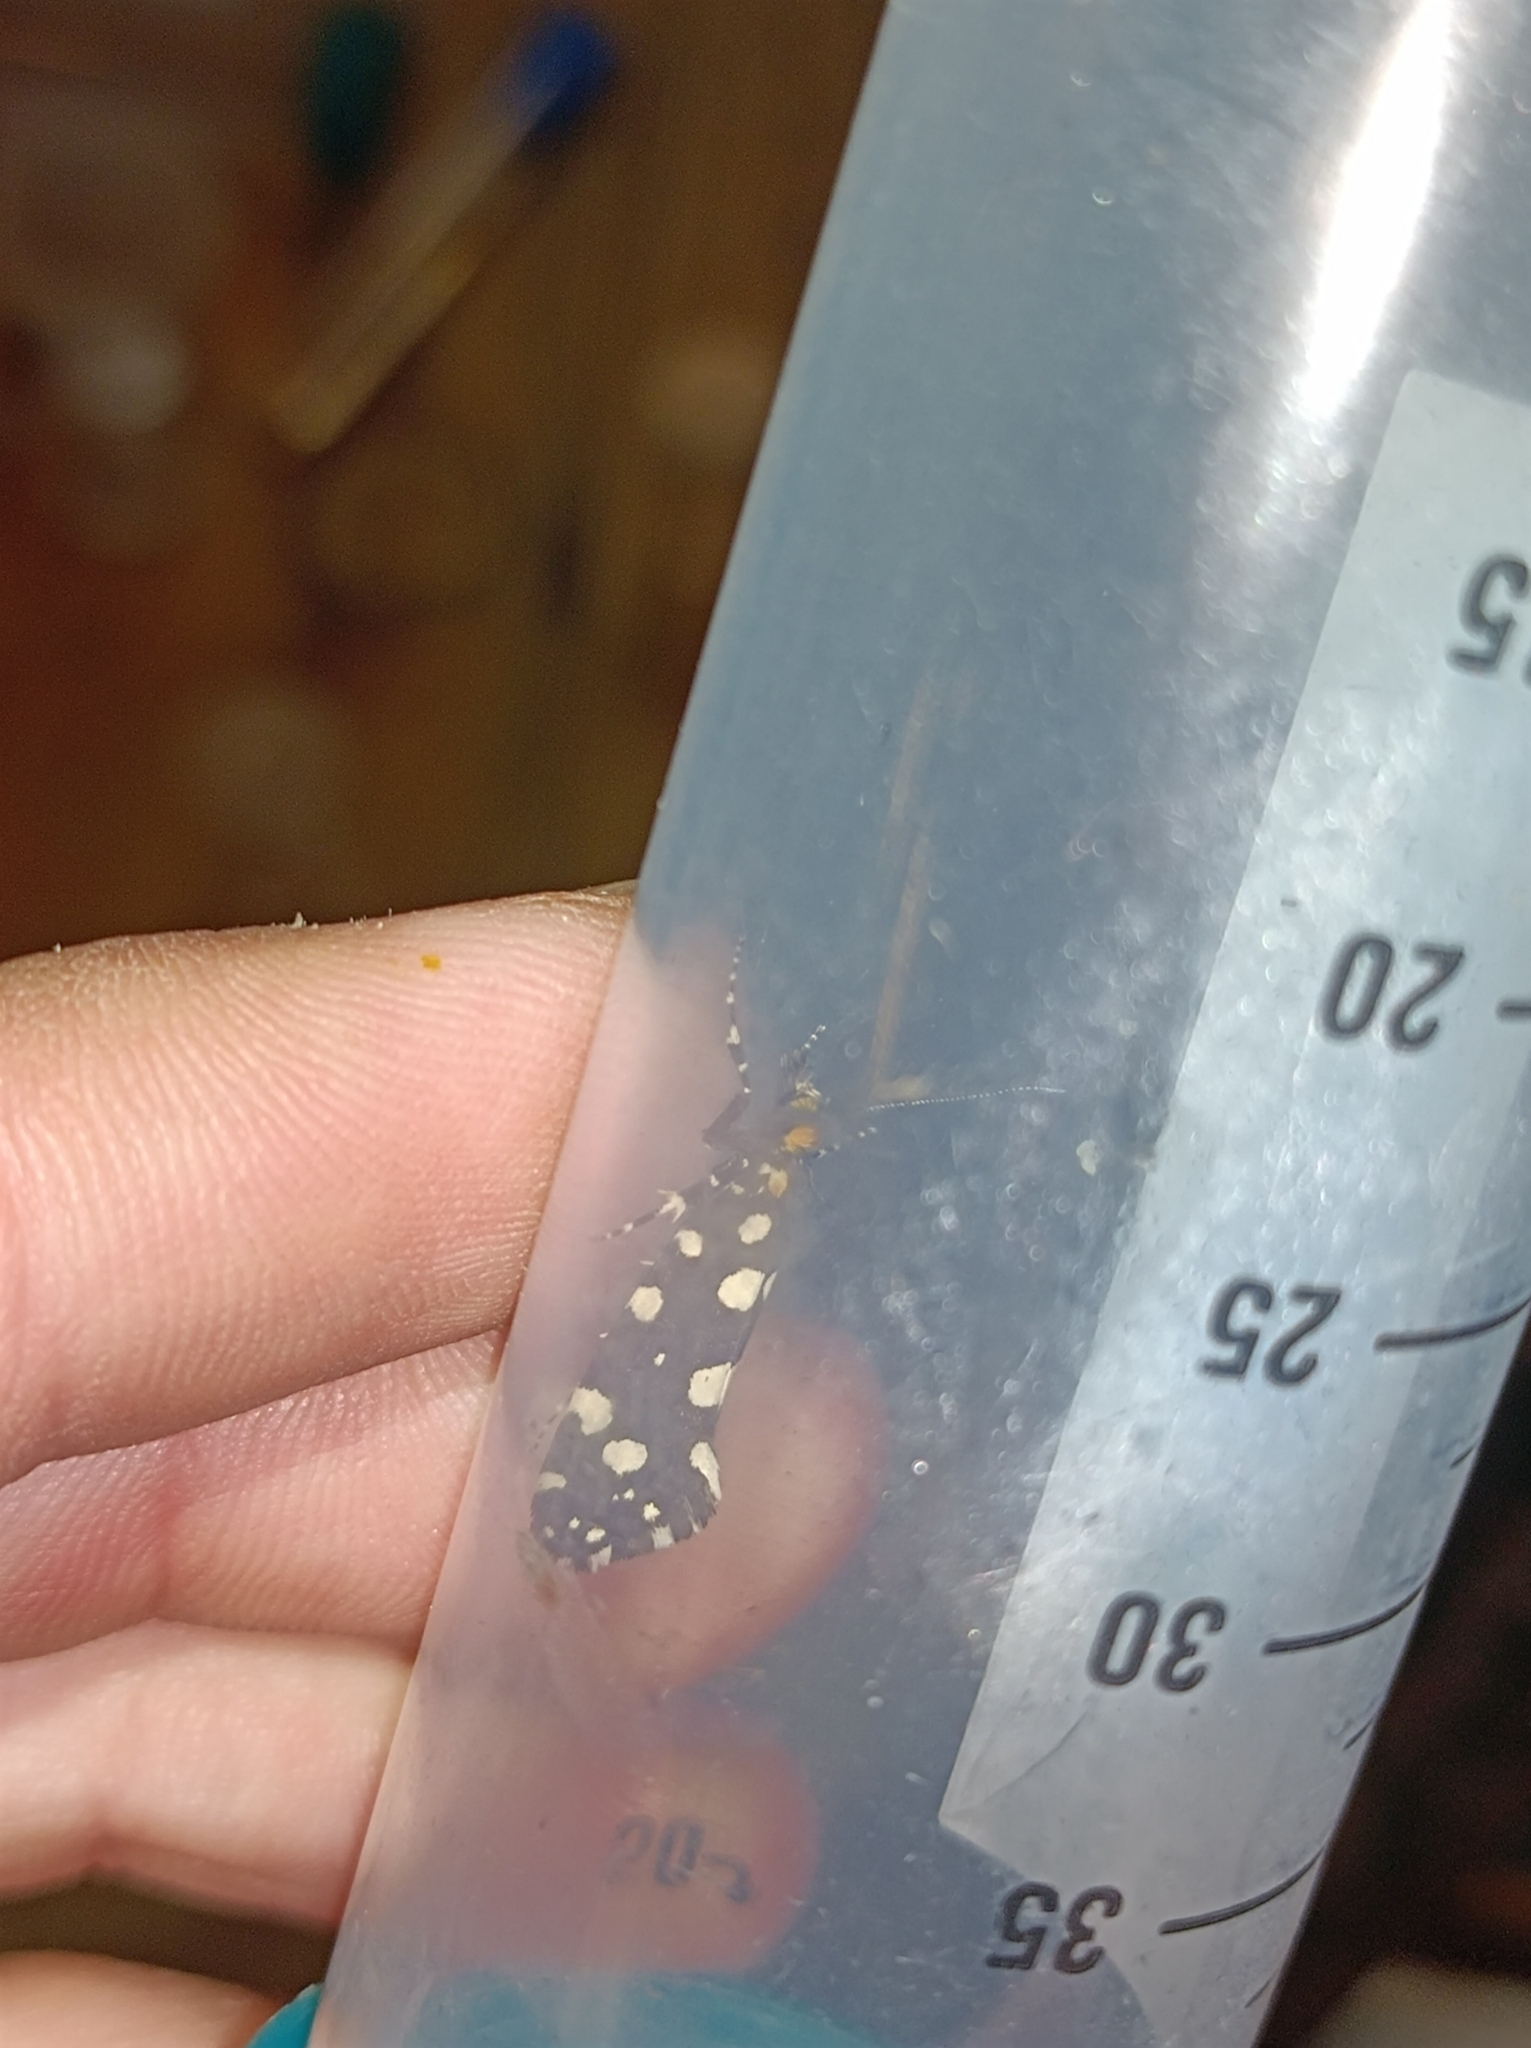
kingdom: Animalia
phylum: Arthropoda
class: Insecta
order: Lepidoptera
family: Tineidae
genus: Euplocamus
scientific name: Euplocamus anthracinalis
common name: Black clothes
